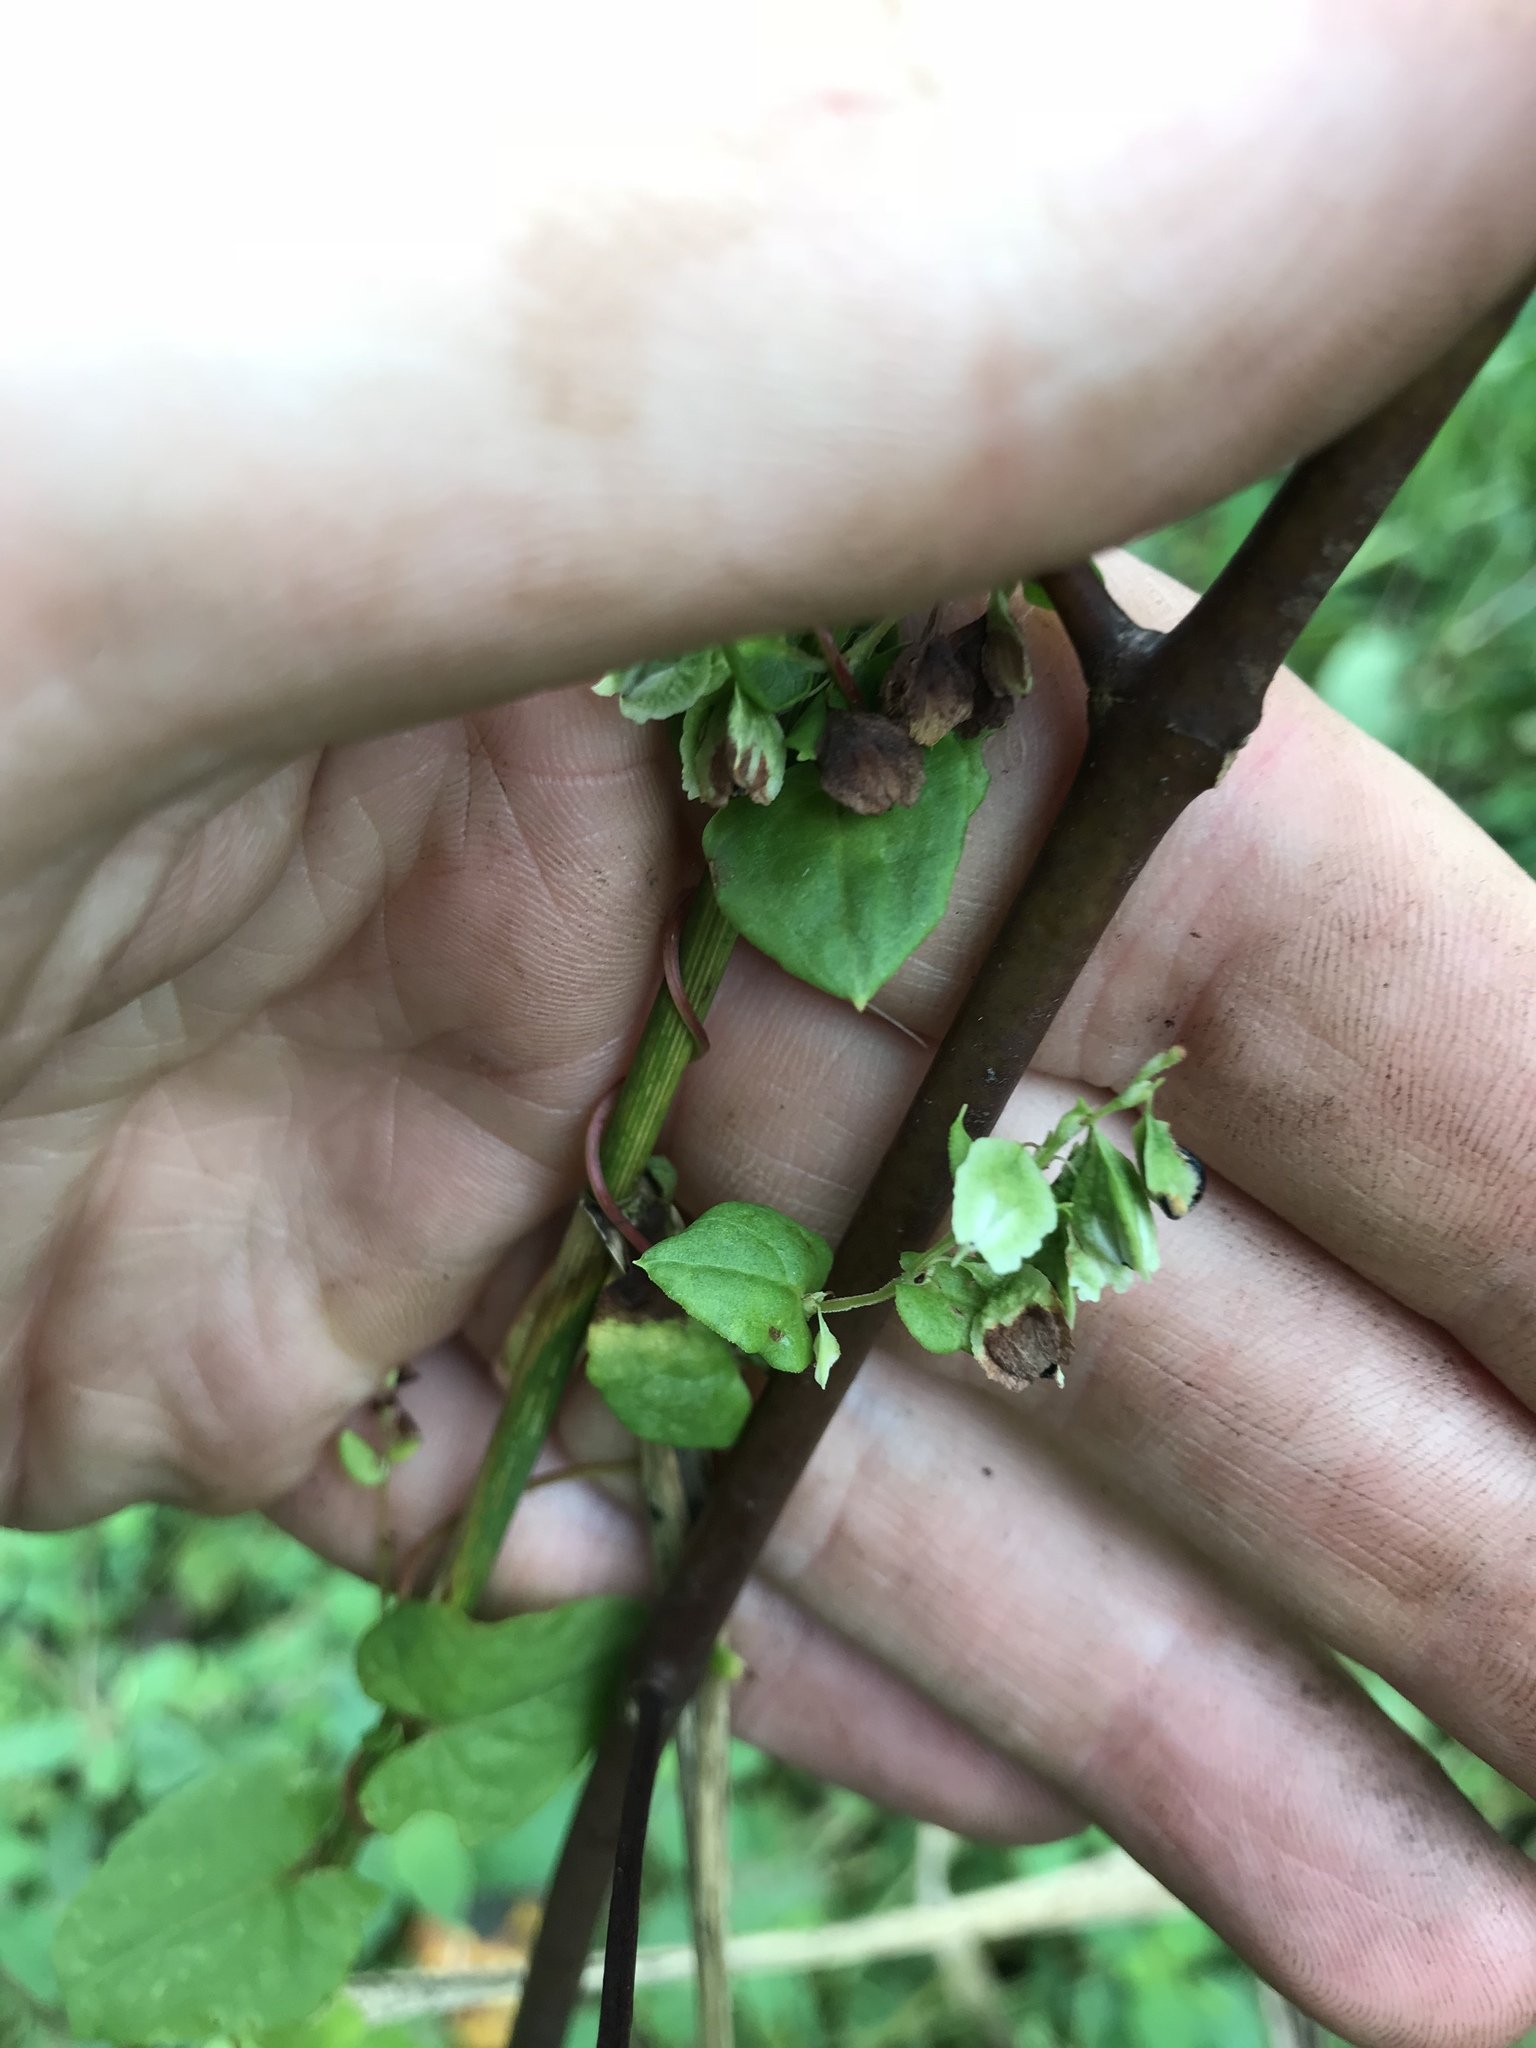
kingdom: Plantae
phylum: Tracheophyta
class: Magnoliopsida
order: Caryophyllales
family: Polygonaceae
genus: Fallopia
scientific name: Fallopia scandens
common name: Climbing false buckwheat
